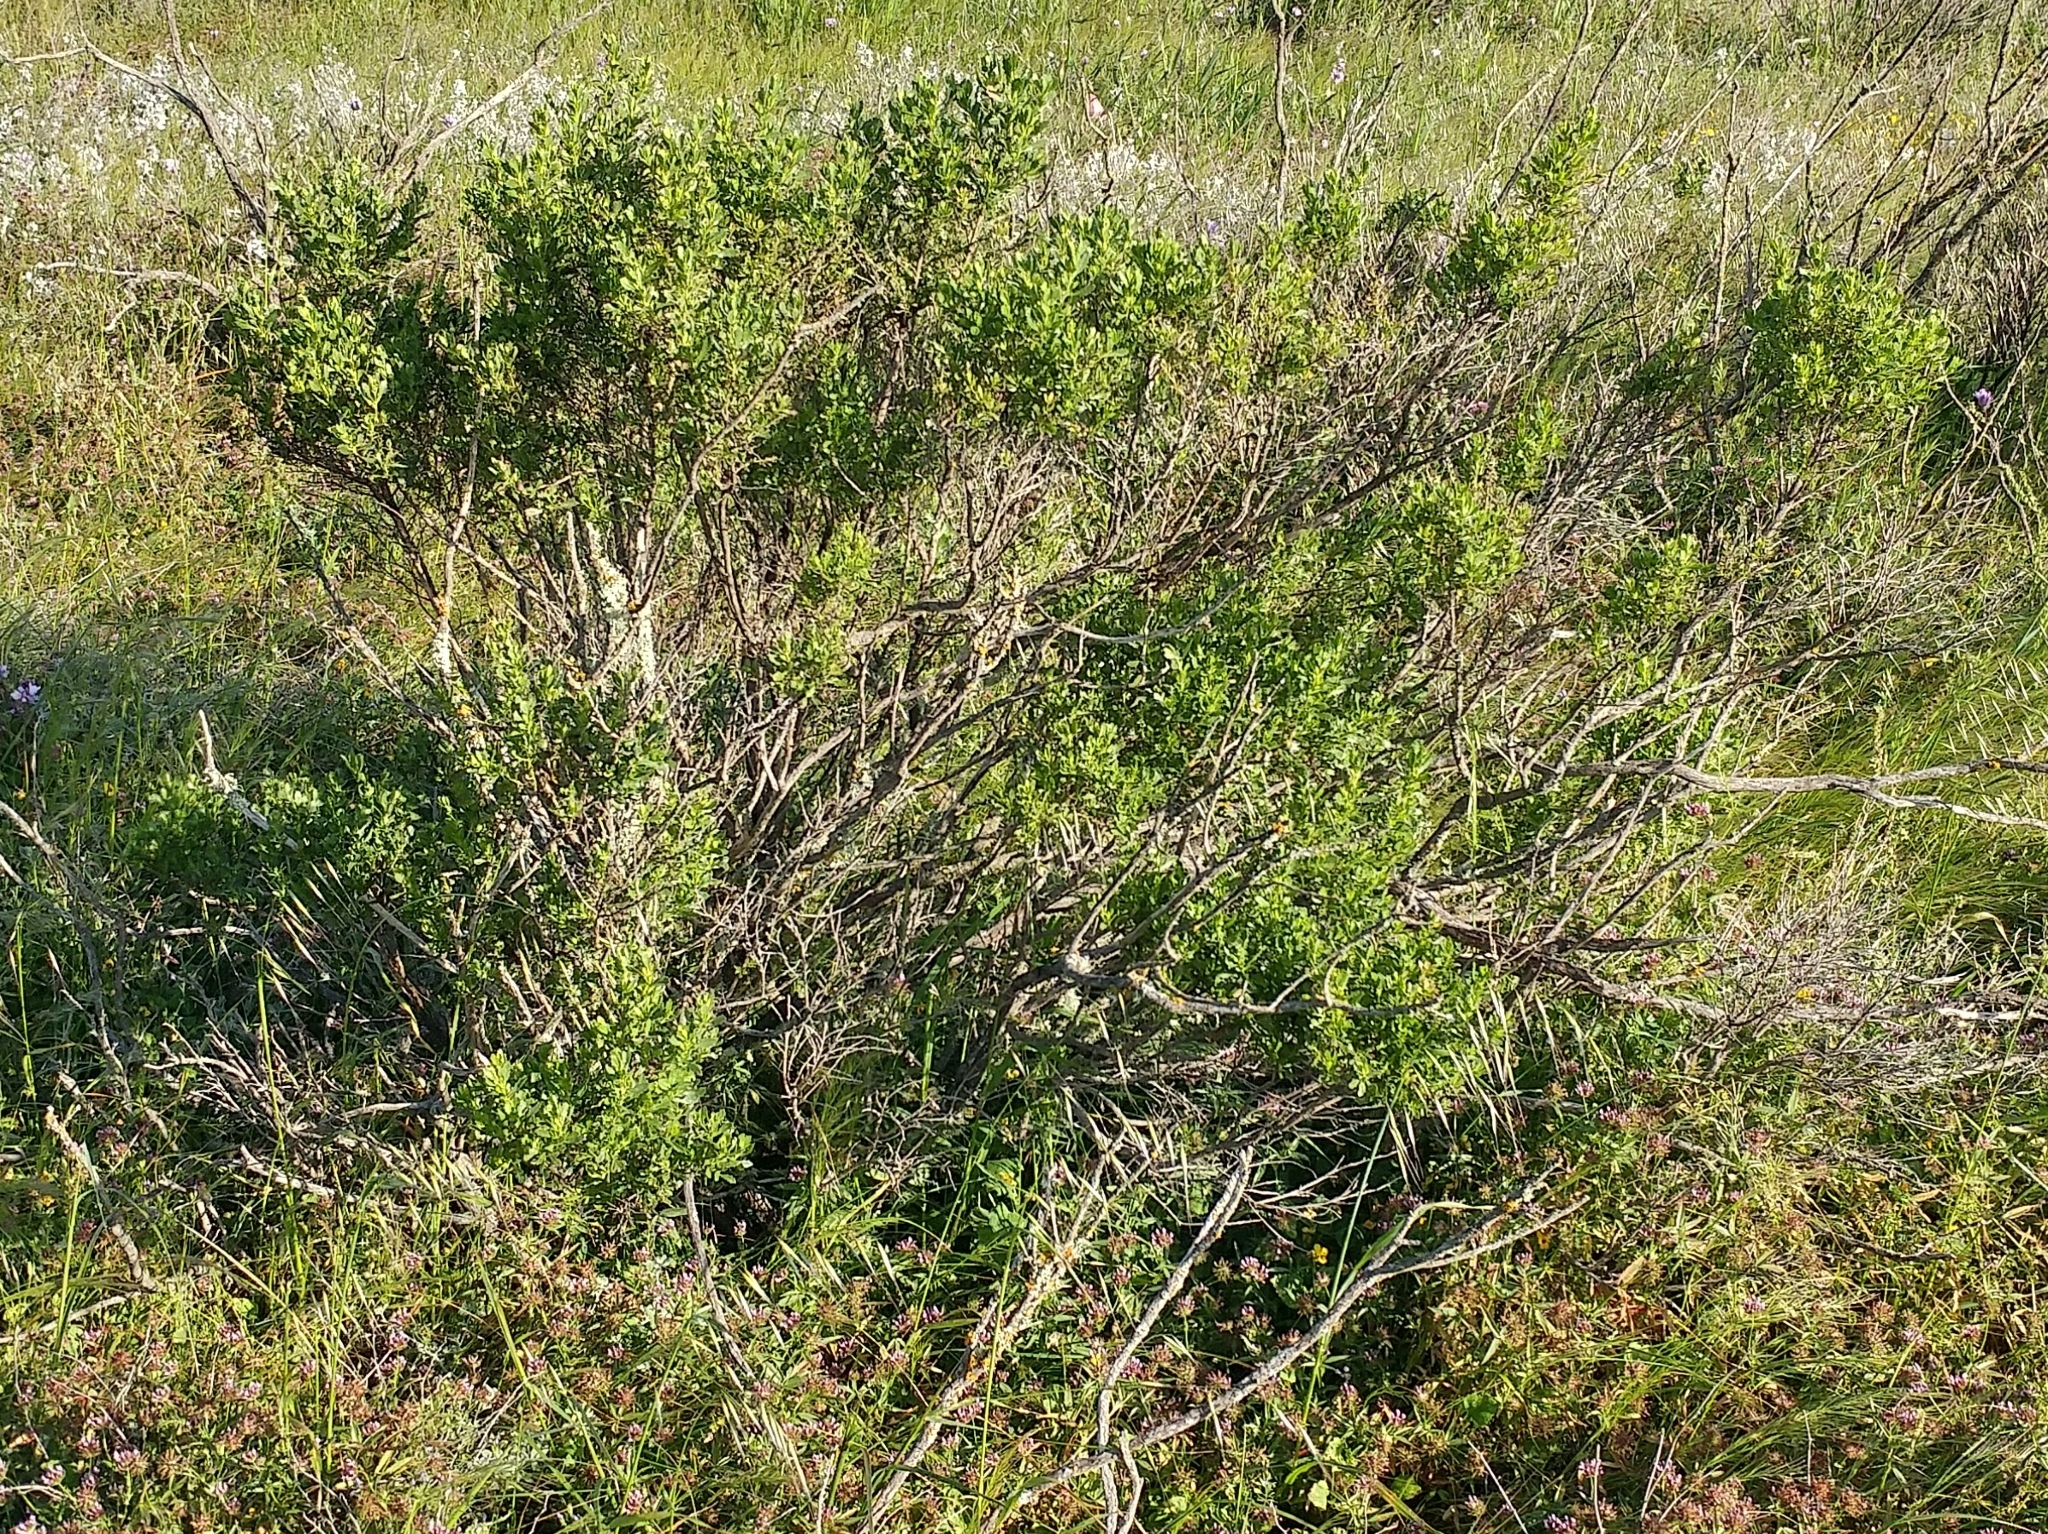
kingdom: Plantae
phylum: Tracheophyta
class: Magnoliopsida
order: Asterales
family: Asteraceae
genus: Baccharis
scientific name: Baccharis pilularis
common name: Coyotebrush
